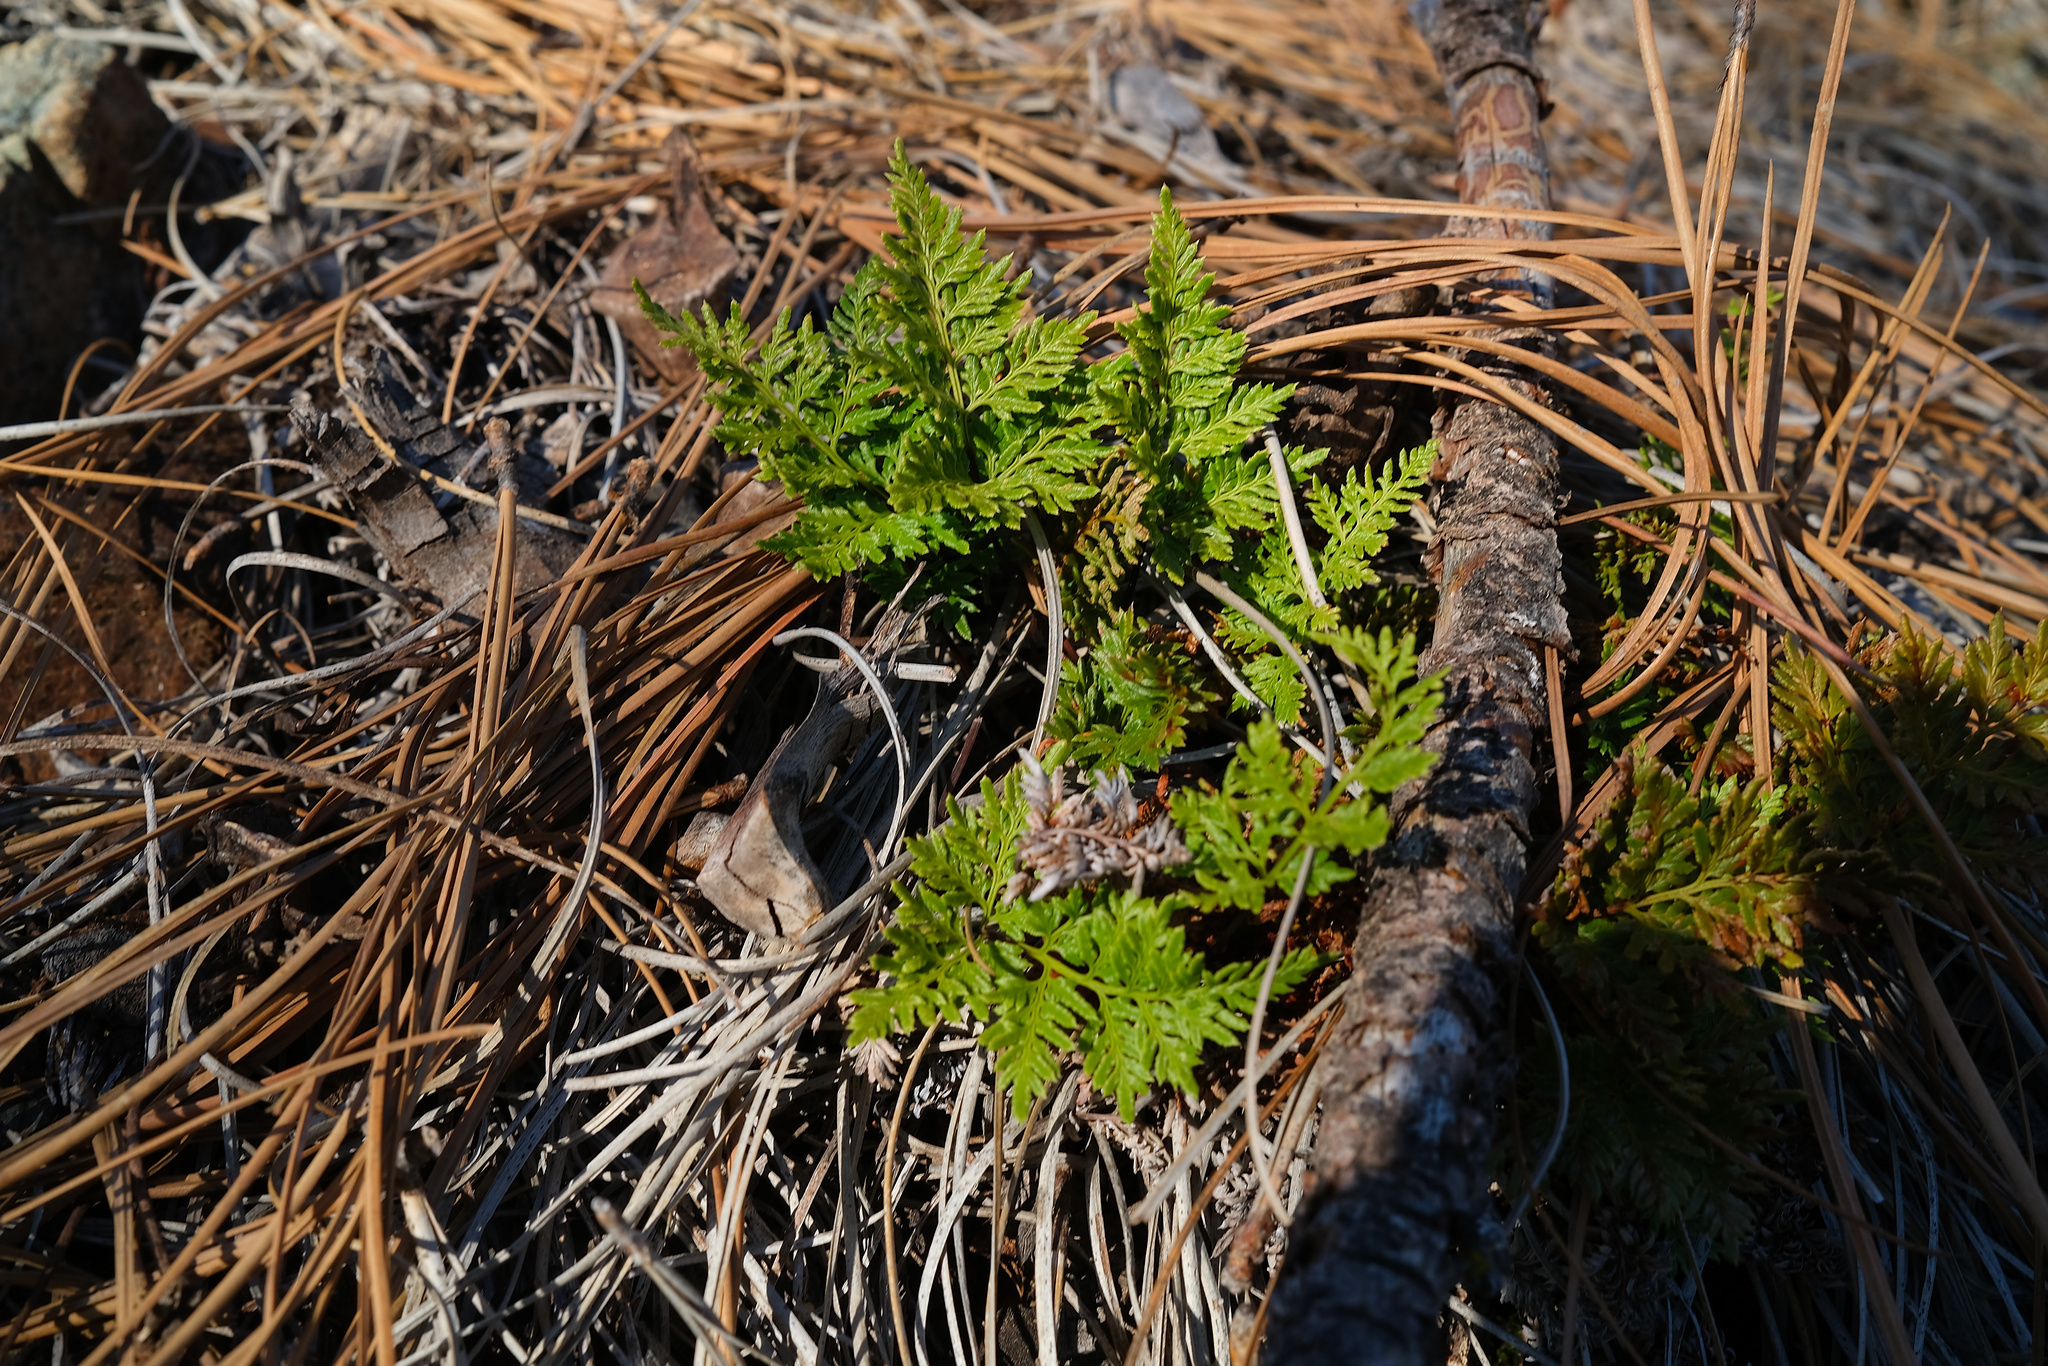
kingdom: Plantae
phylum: Tracheophyta
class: Polypodiopsida
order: Polypodiales
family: Pteridaceae
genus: Aspidotis
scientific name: Aspidotis californica
